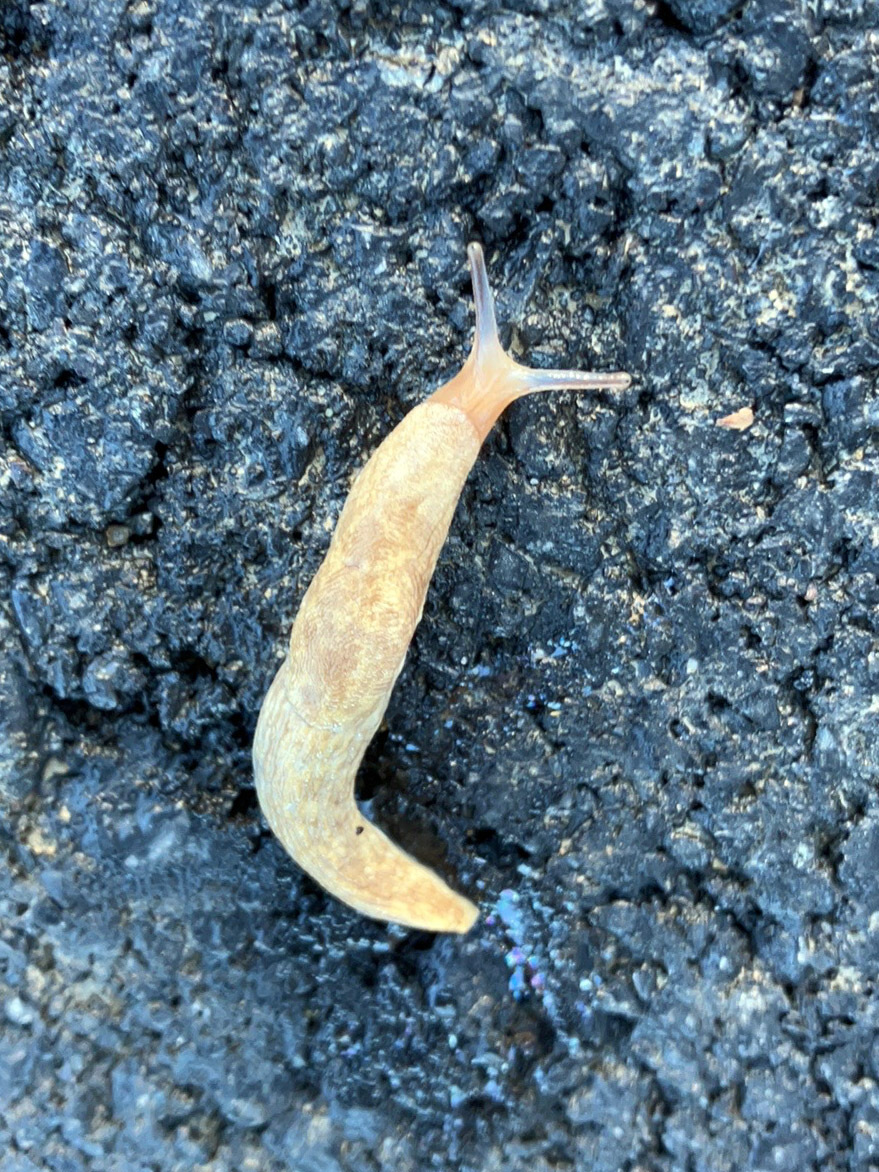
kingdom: Animalia
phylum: Mollusca
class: Gastropoda
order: Stylommatophora
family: Agriolimacidae
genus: Deroceras
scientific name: Deroceras reticulatum
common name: Gray field slug
